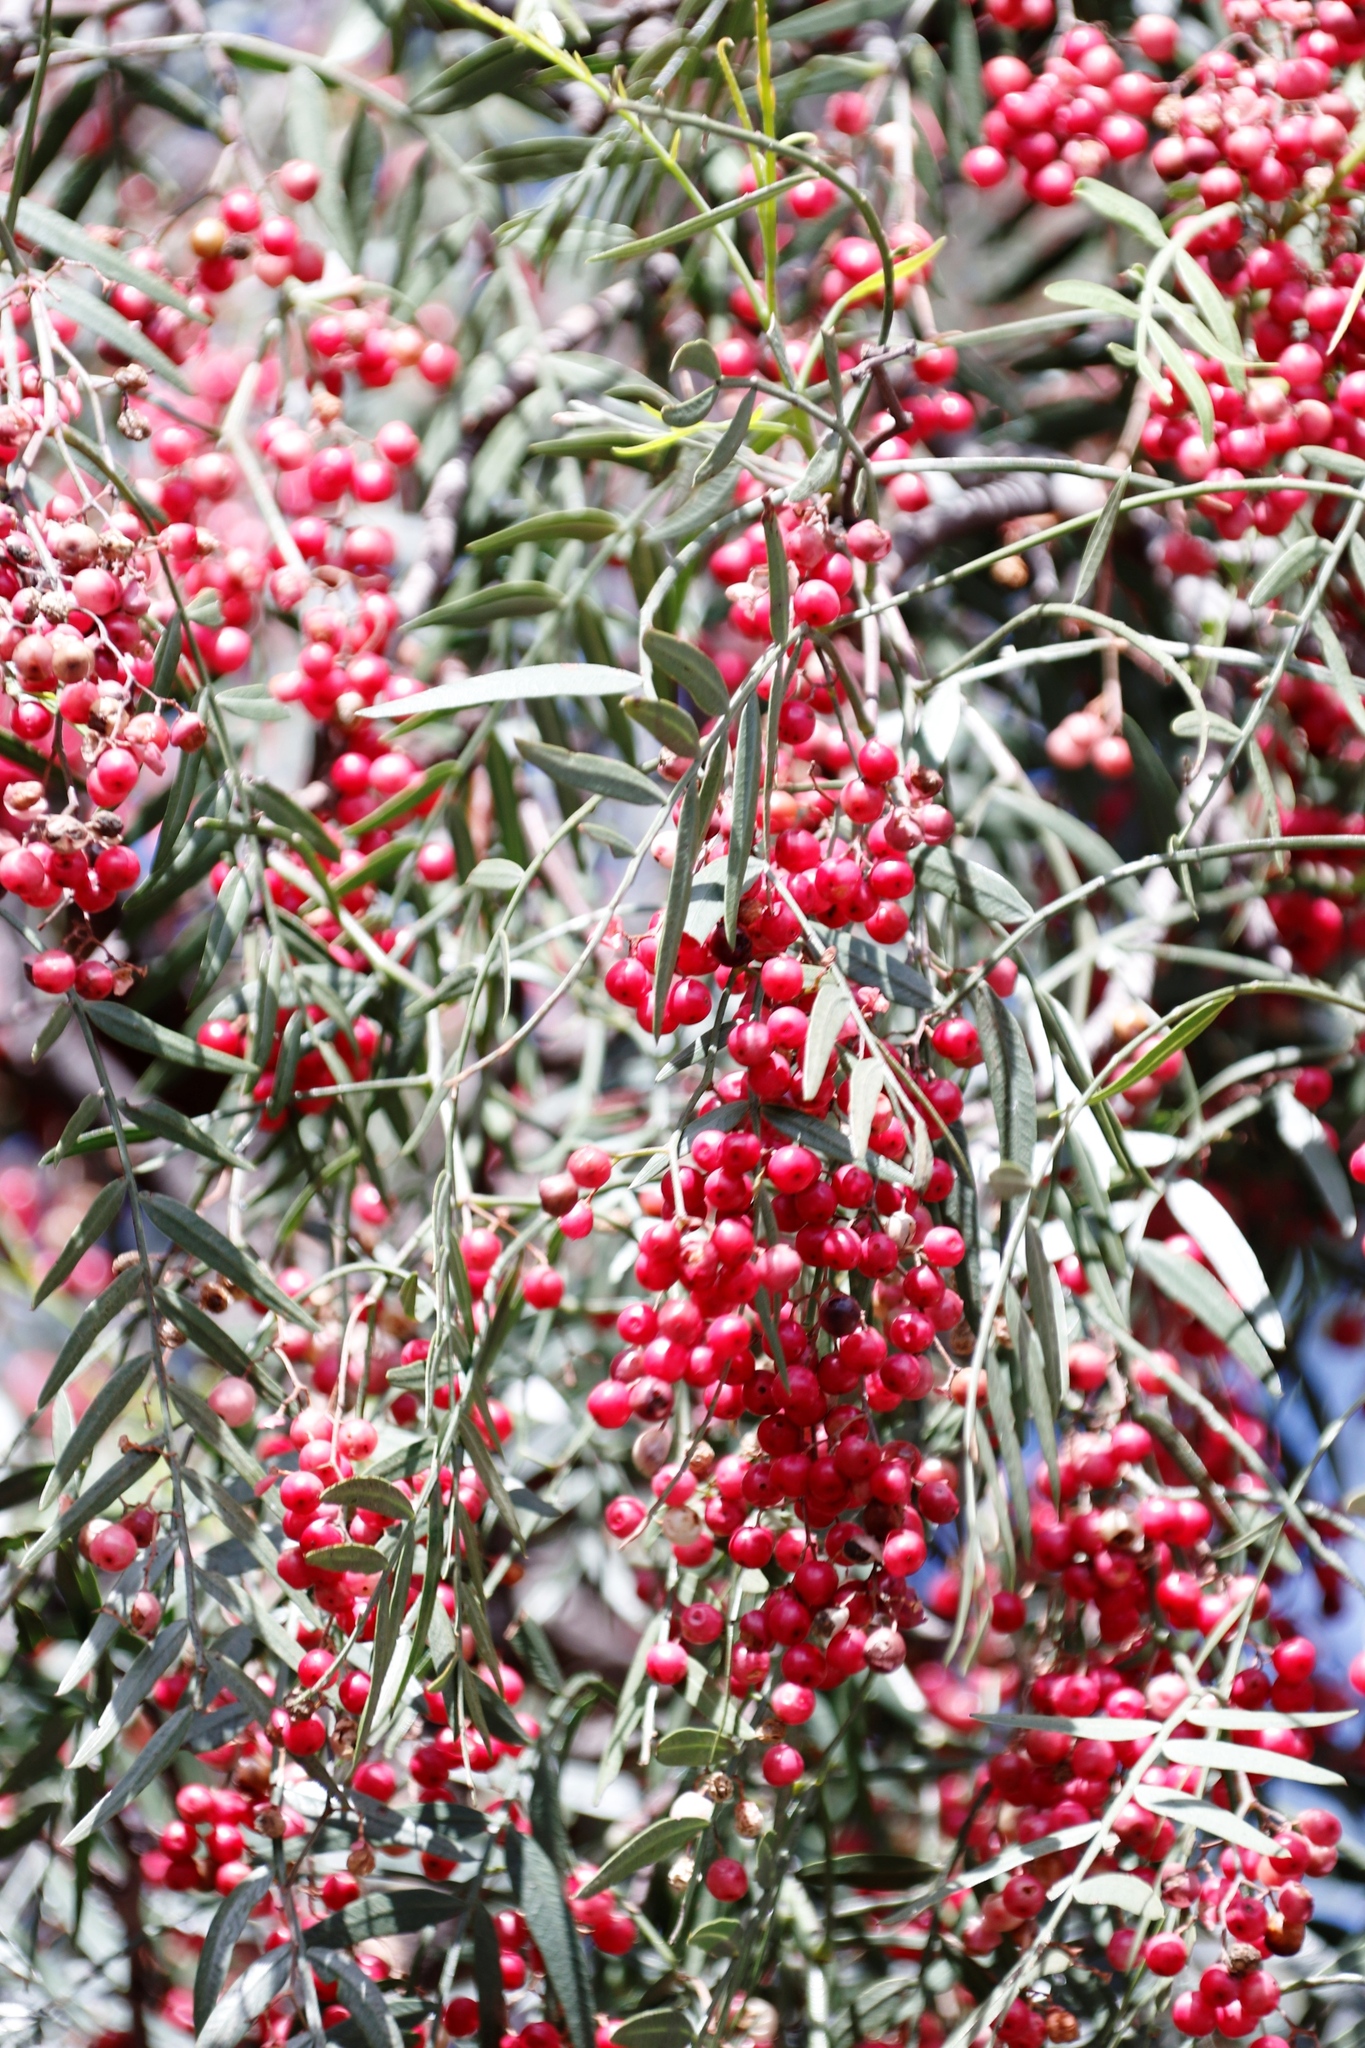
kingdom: Plantae
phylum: Tracheophyta
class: Magnoliopsida
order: Sapindales
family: Anacardiaceae
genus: Schinus
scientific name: Schinus molle
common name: Peruvian peppertree
